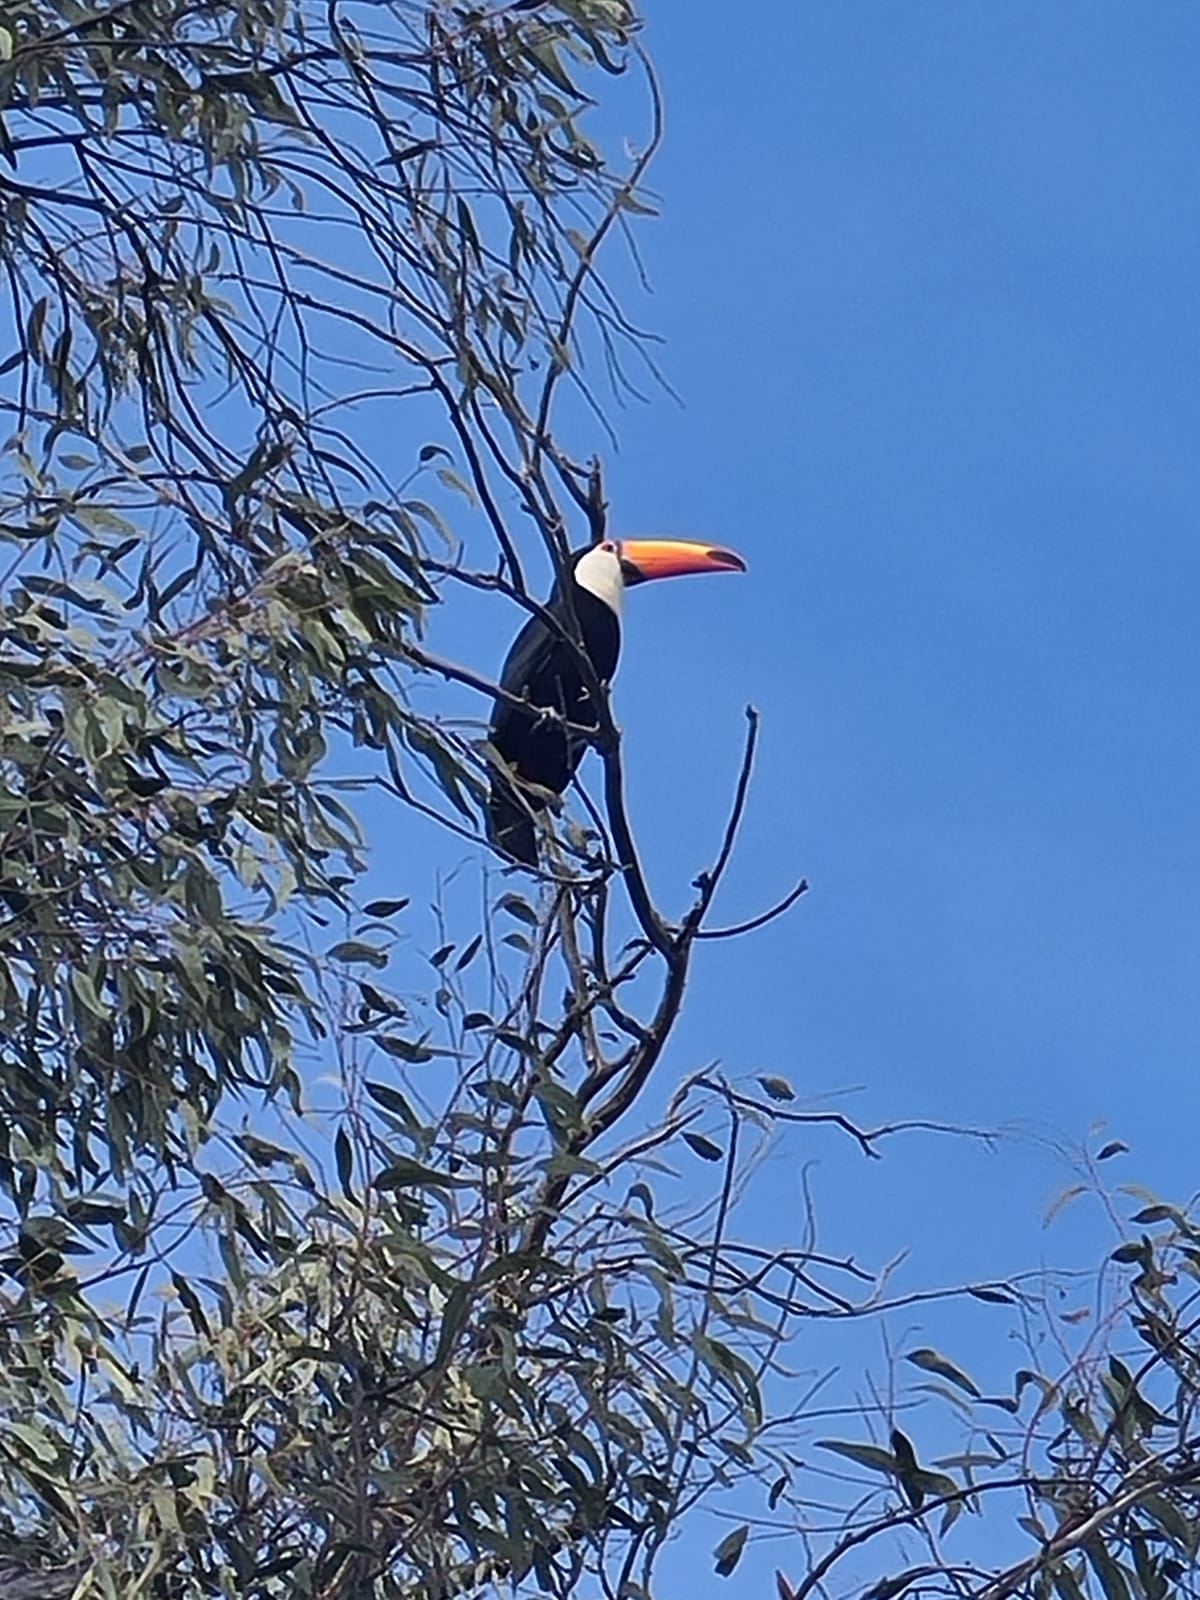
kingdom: Animalia
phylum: Chordata
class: Aves
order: Piciformes
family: Ramphastidae
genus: Ramphastos
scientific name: Ramphastos toco
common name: Toco toucan
